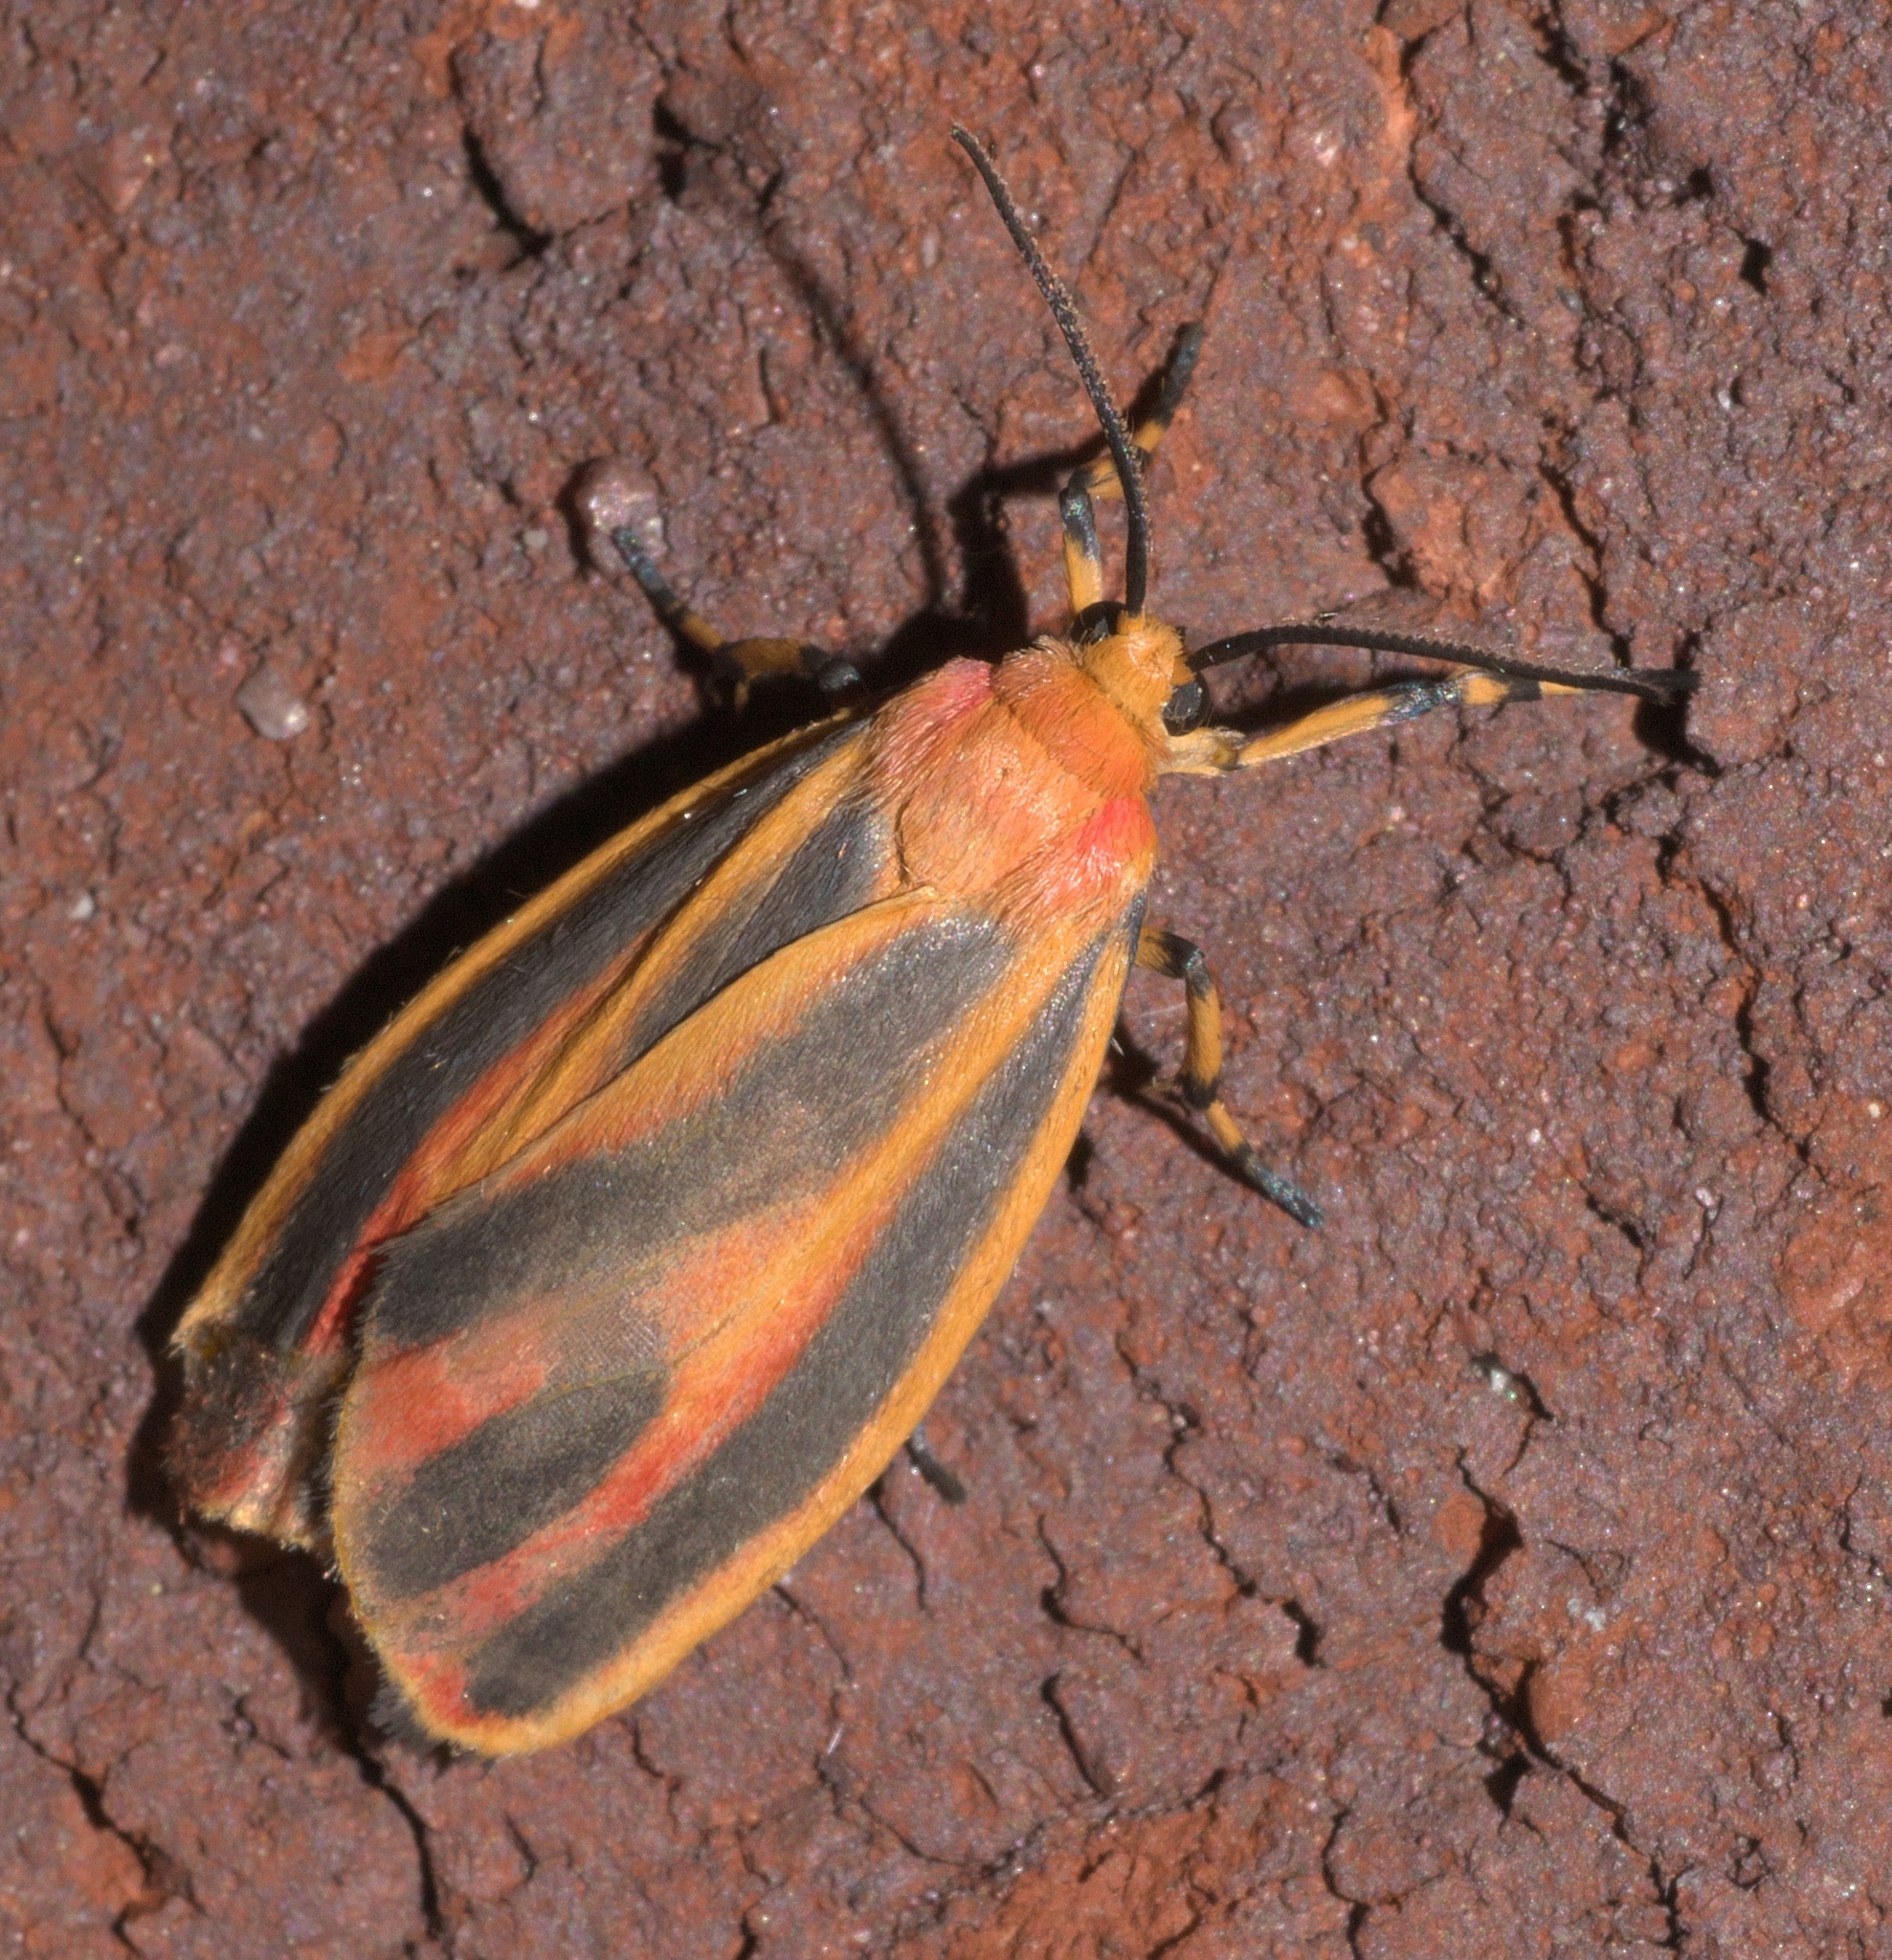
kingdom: Animalia
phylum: Arthropoda
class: Insecta
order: Lepidoptera
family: Erebidae
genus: Hypoprepia
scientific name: Hypoprepia fucosa
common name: Painted lichen moth
